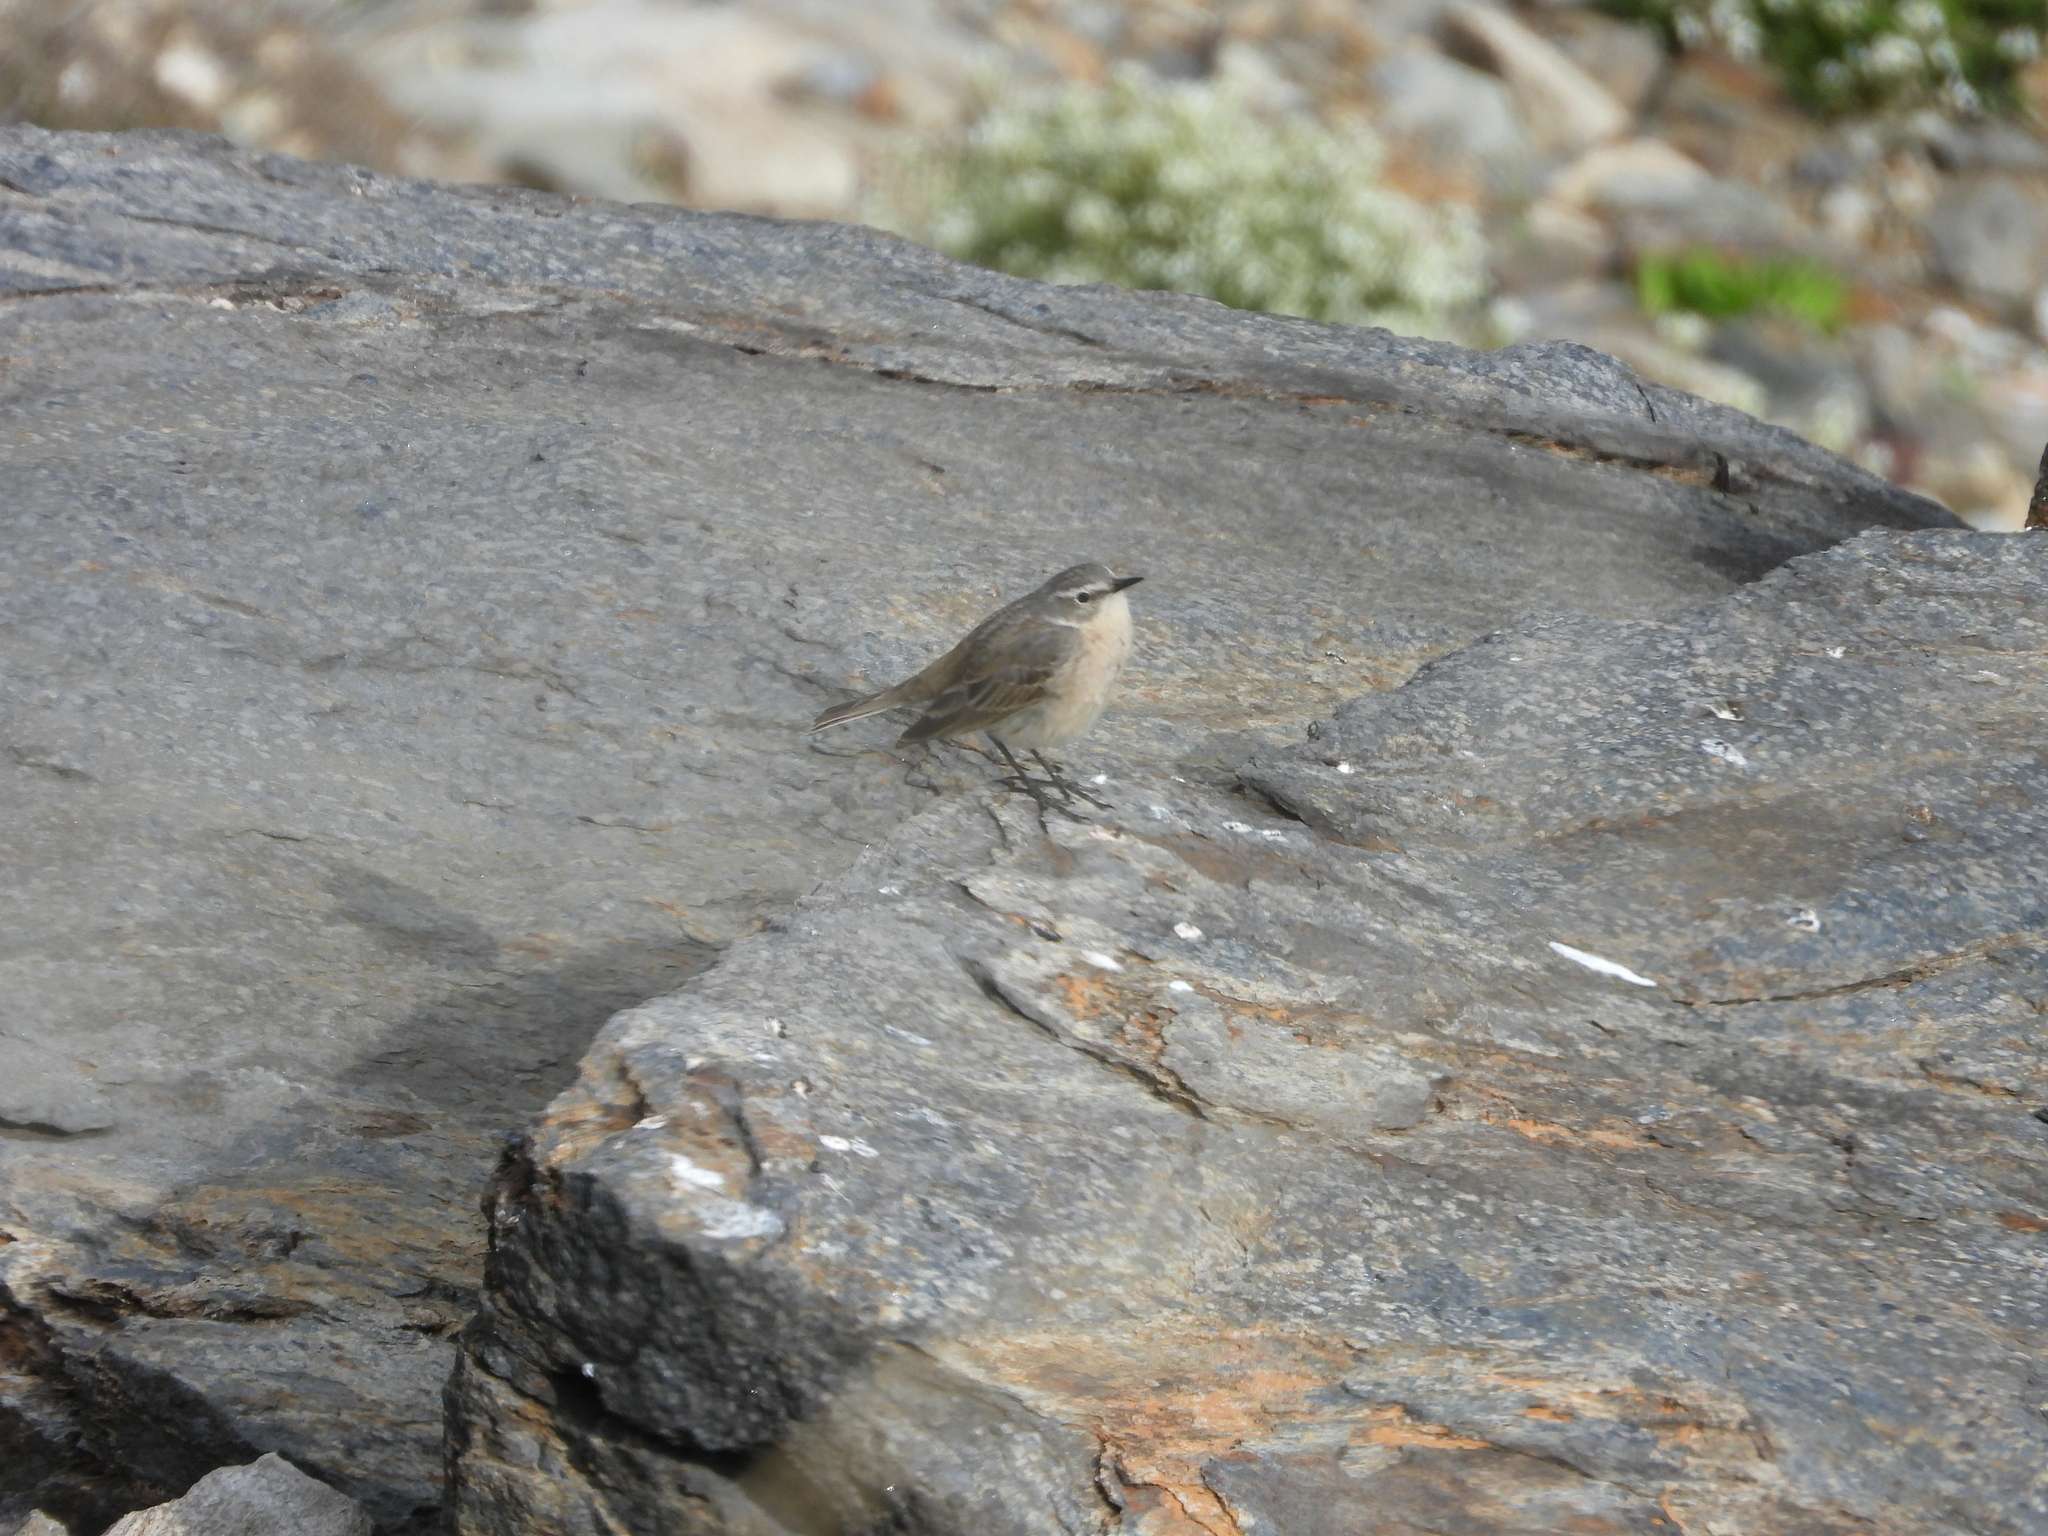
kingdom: Animalia
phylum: Chordata
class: Aves
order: Passeriformes
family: Motacillidae
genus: Anthus
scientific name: Anthus spinoletta
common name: Water pipit
